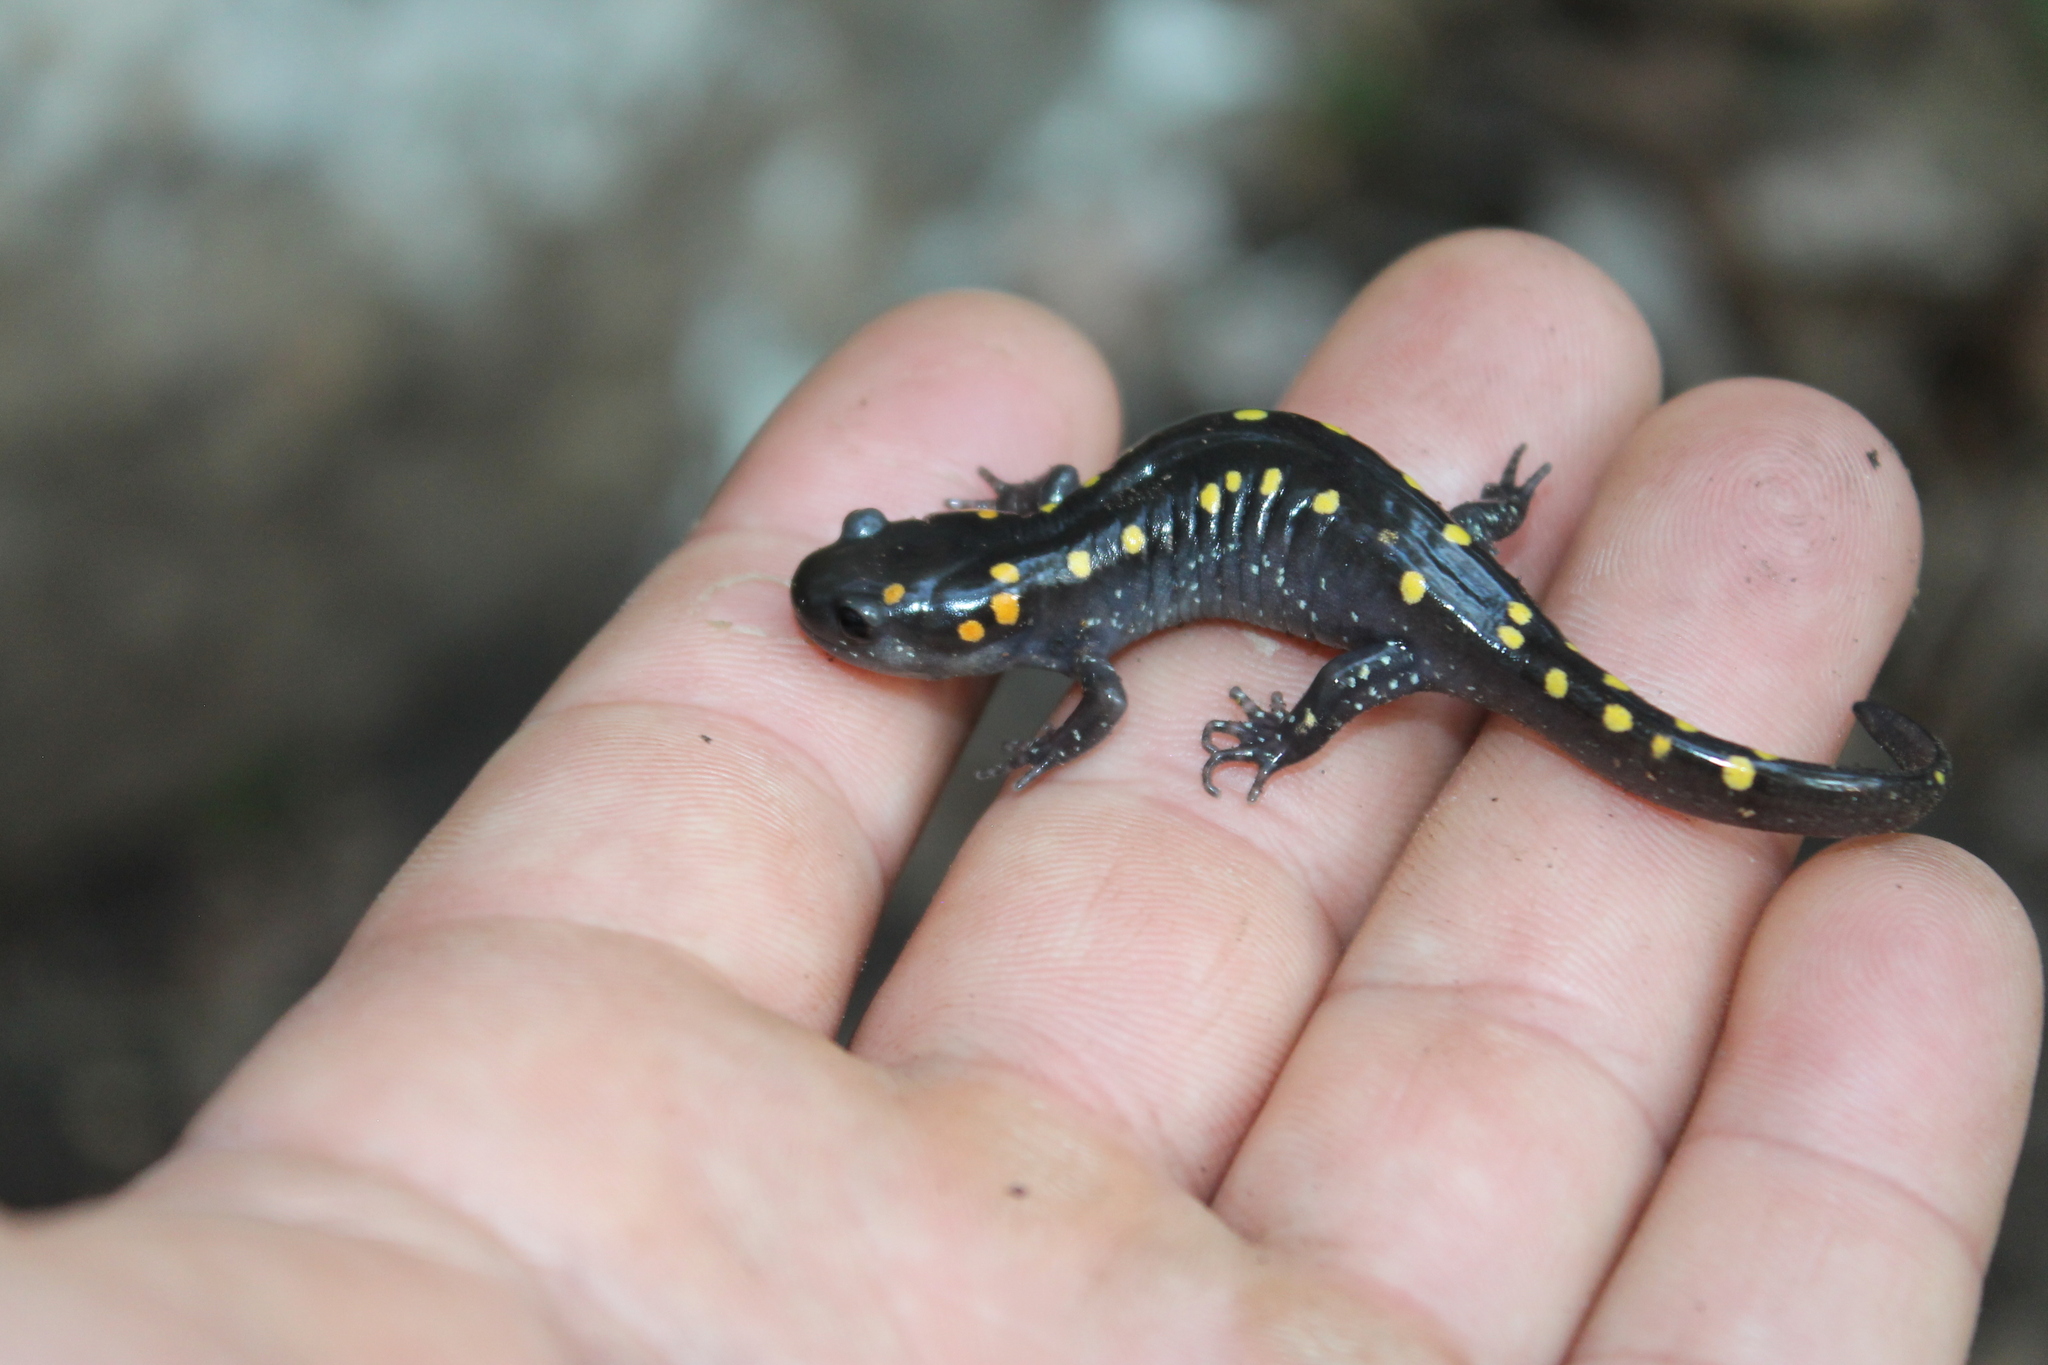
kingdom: Animalia
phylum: Chordata
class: Amphibia
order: Caudata
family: Ambystomatidae
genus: Ambystoma
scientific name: Ambystoma maculatum
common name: Spotted salamander
